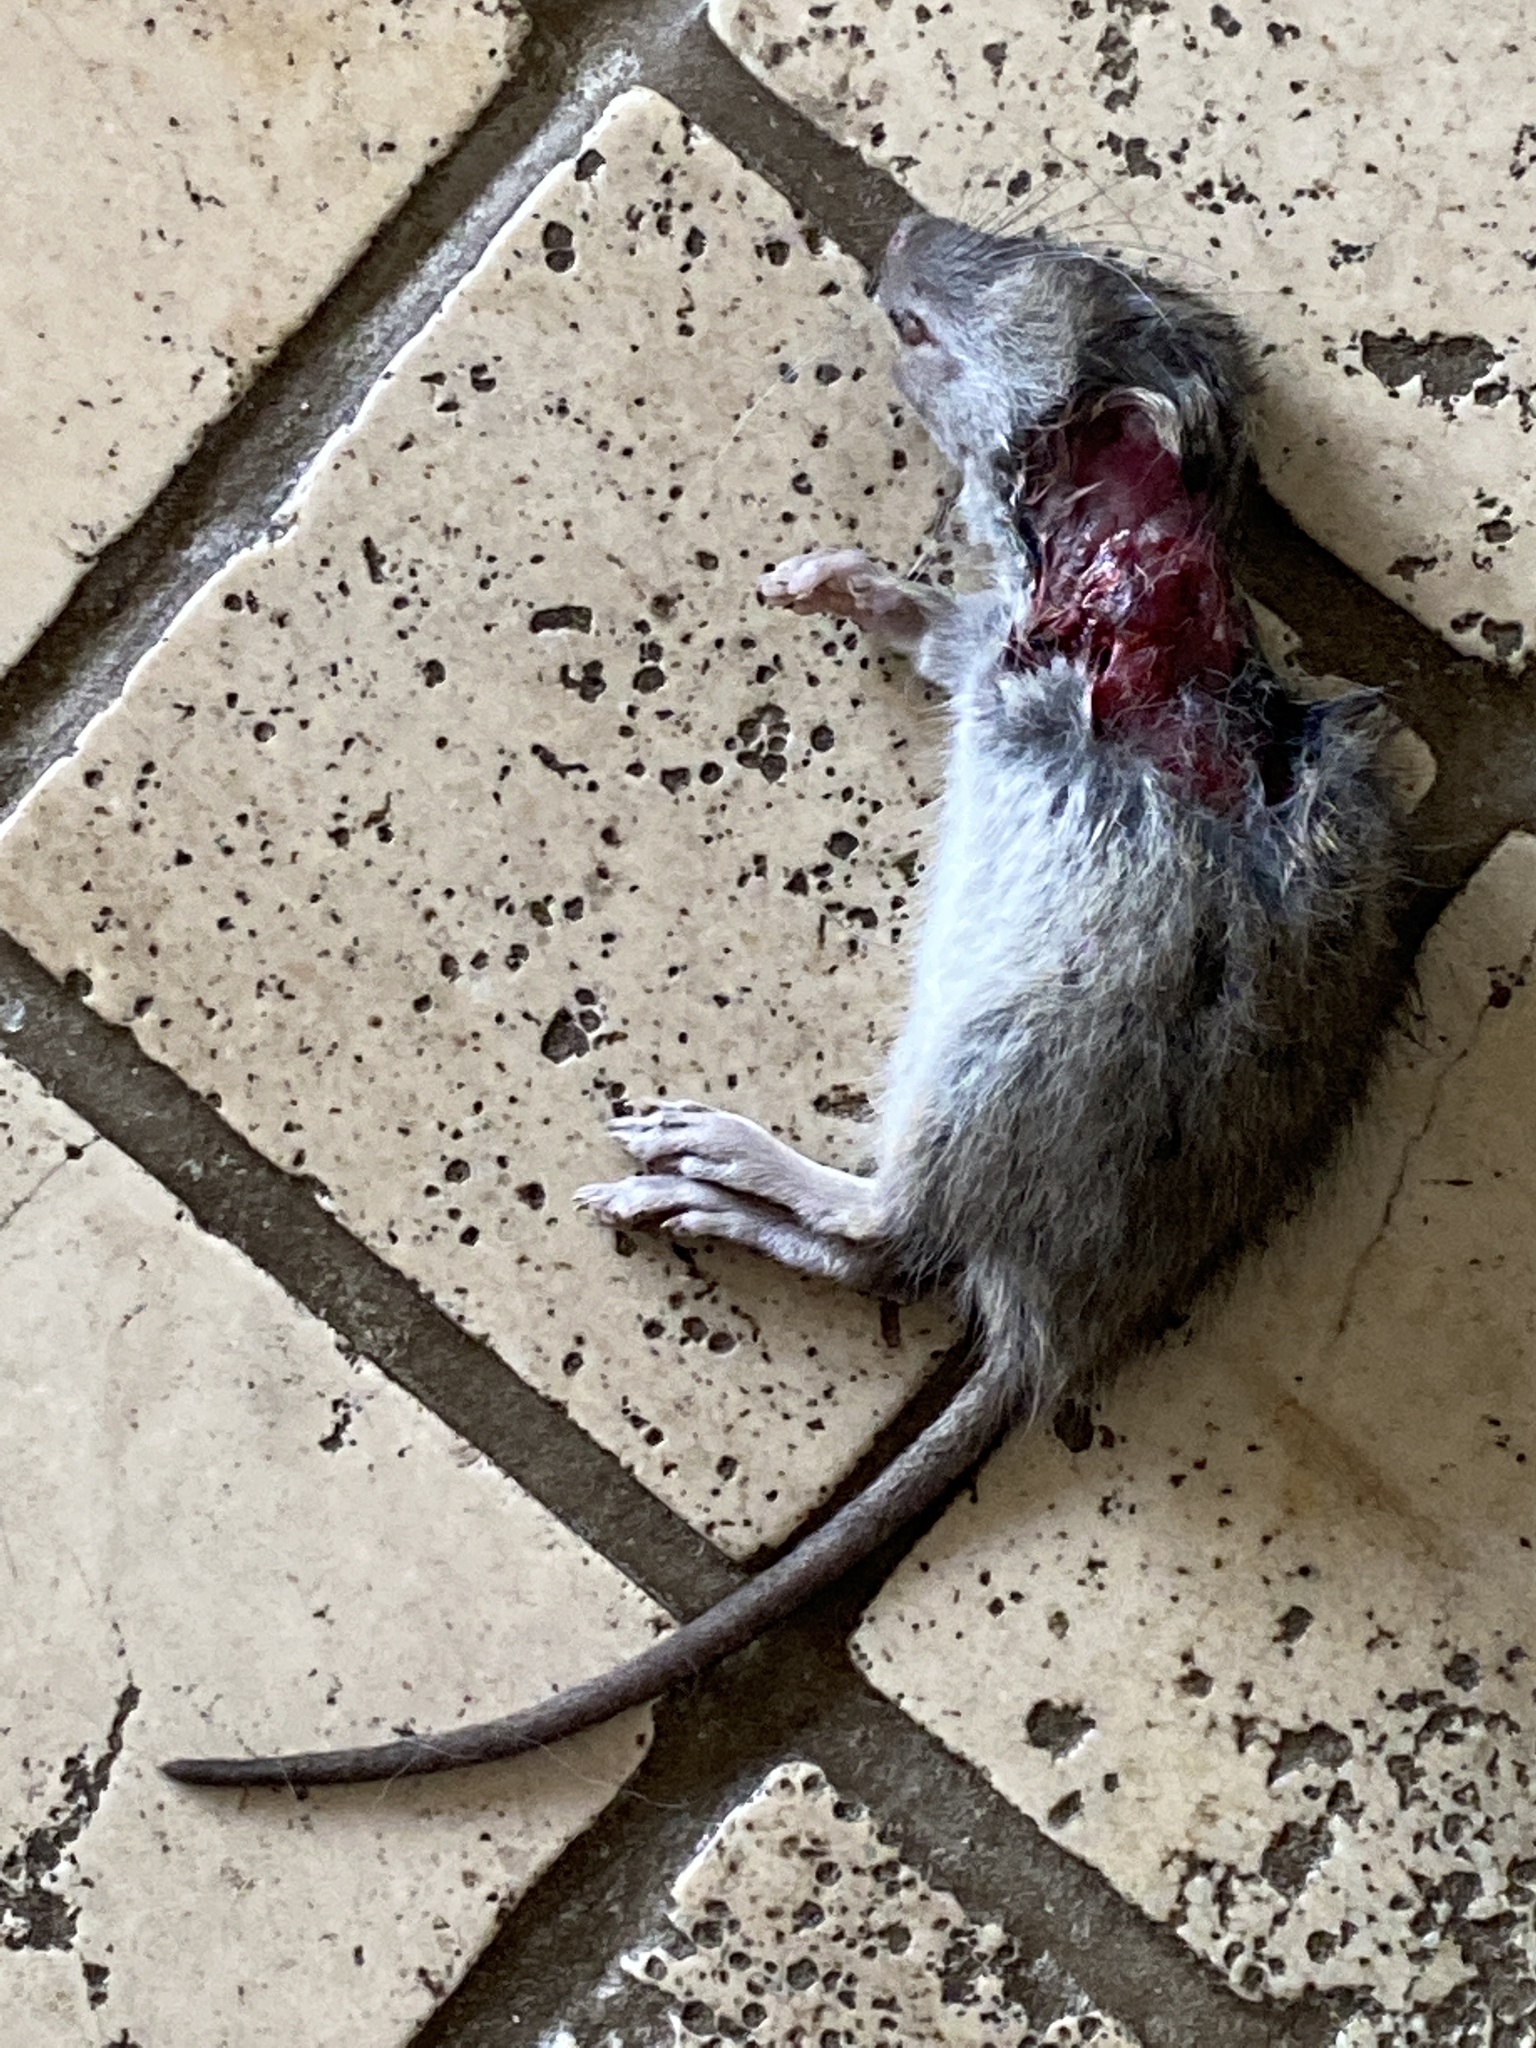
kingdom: Animalia
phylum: Chordata
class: Mammalia
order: Rodentia
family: Muridae
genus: Rattus
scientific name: Rattus norvegicus
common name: Brown rat
